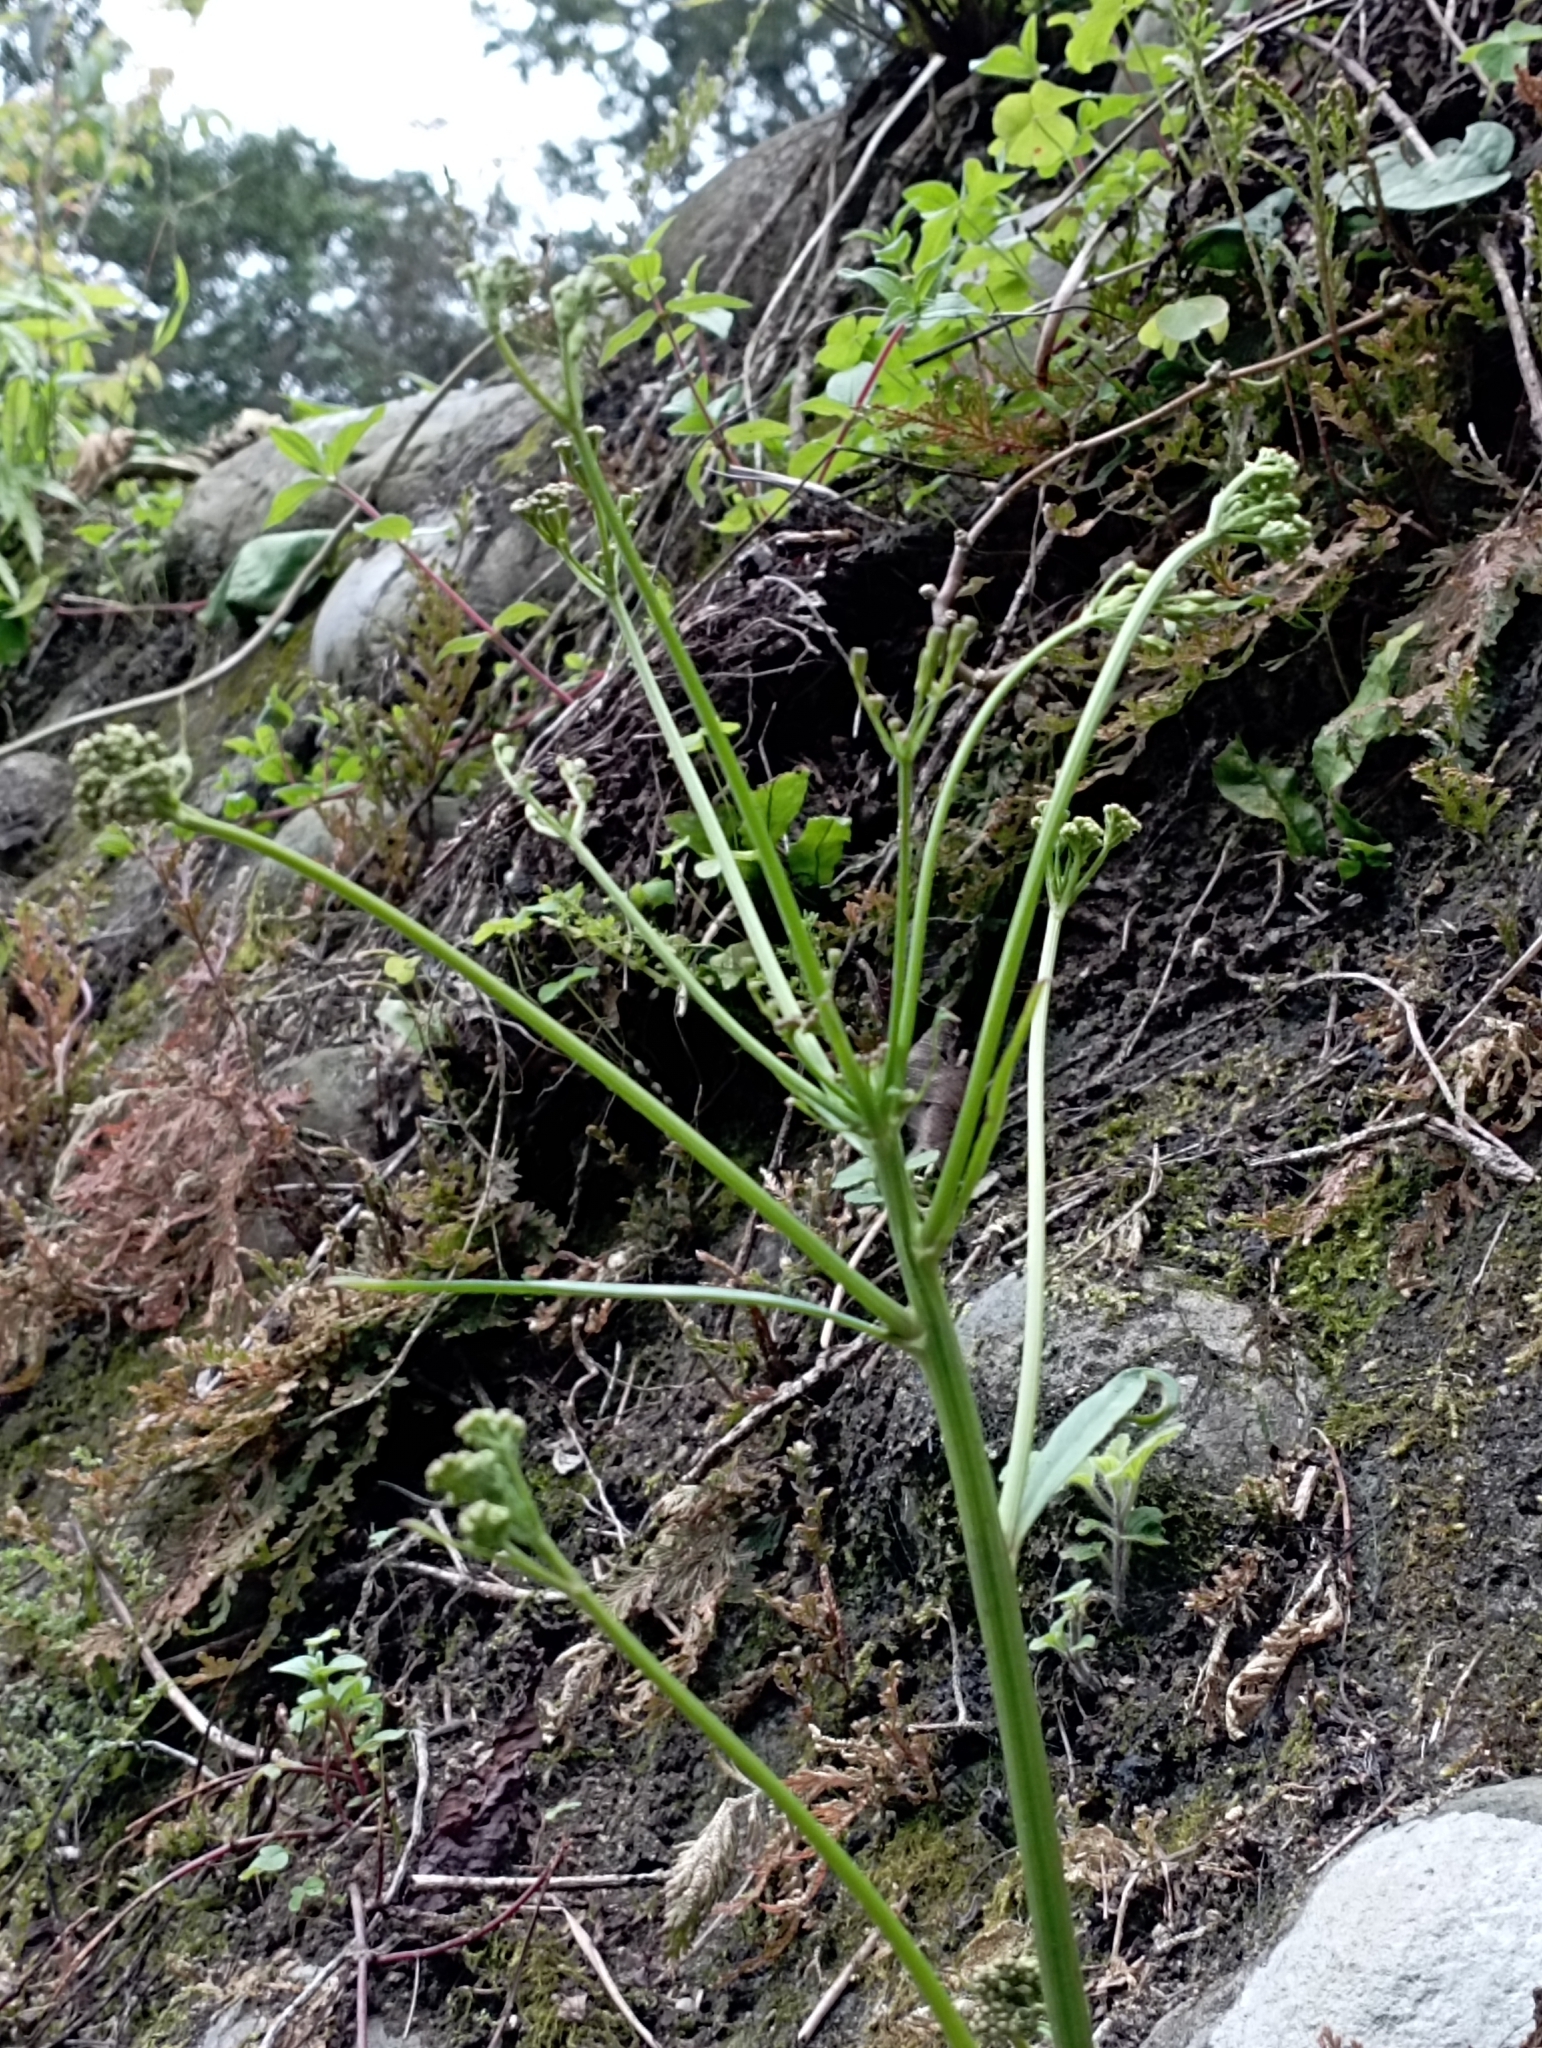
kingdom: Plantae
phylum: Tracheophyta
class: Magnoliopsida
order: Asterales
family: Asteraceae
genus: Ixeridium
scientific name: Ixeridium laevigatum
